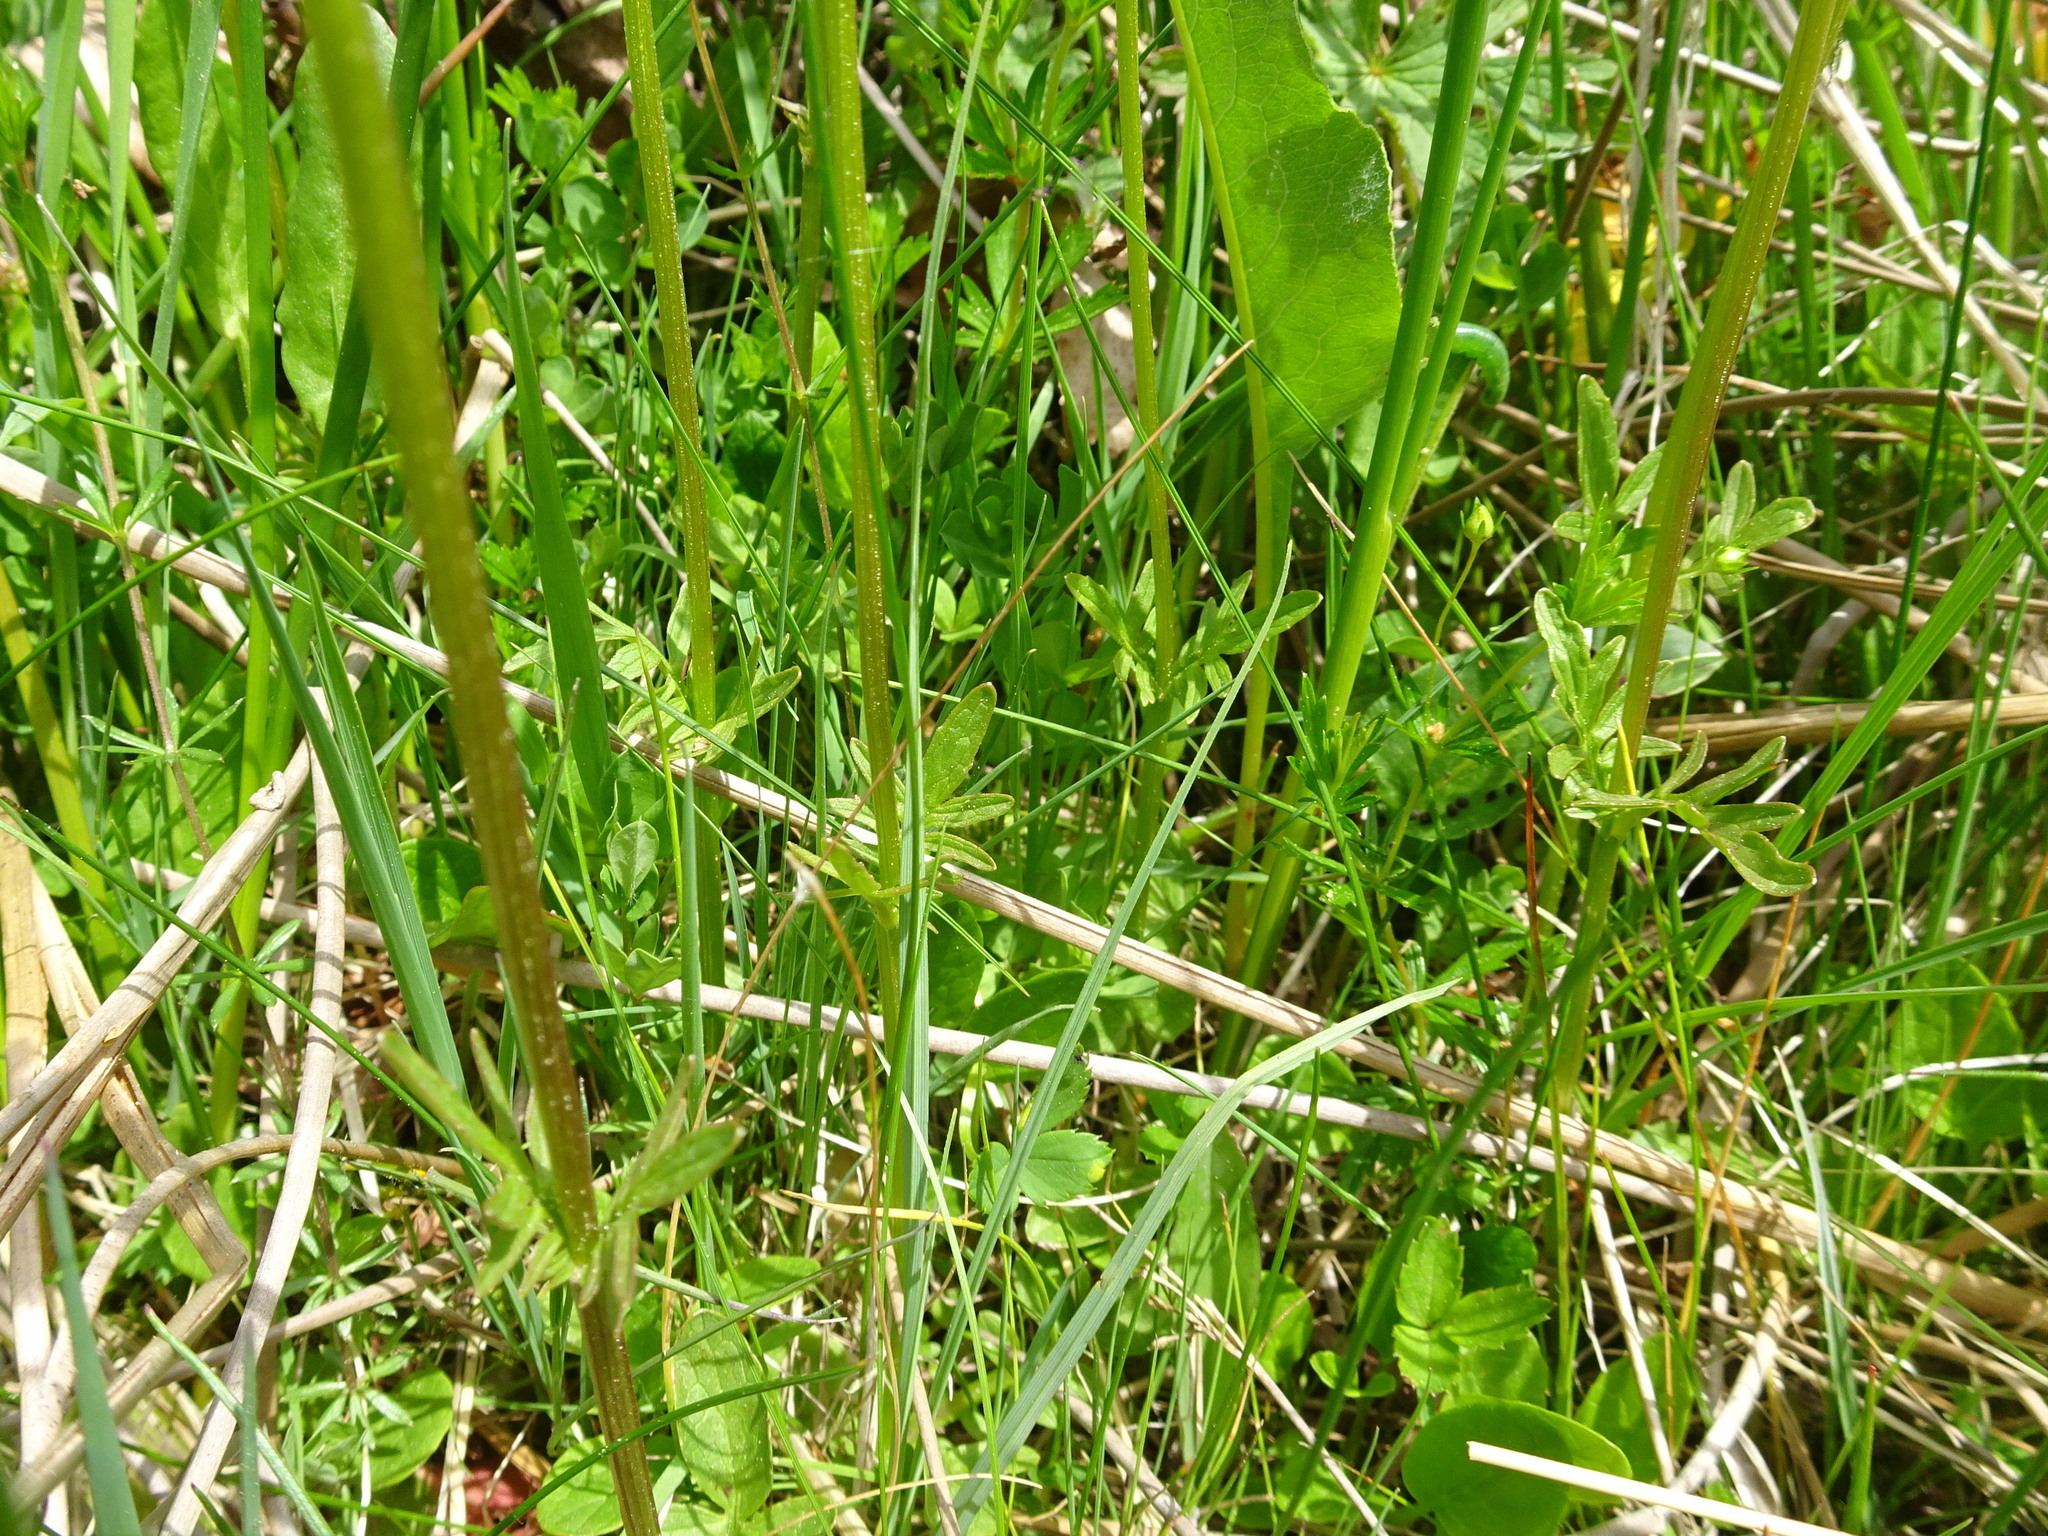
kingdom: Plantae
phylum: Tracheophyta
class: Magnoliopsida
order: Dipsacales
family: Caprifoliaceae
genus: Valeriana
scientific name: Valeriana dioica
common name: Marsh valerian
